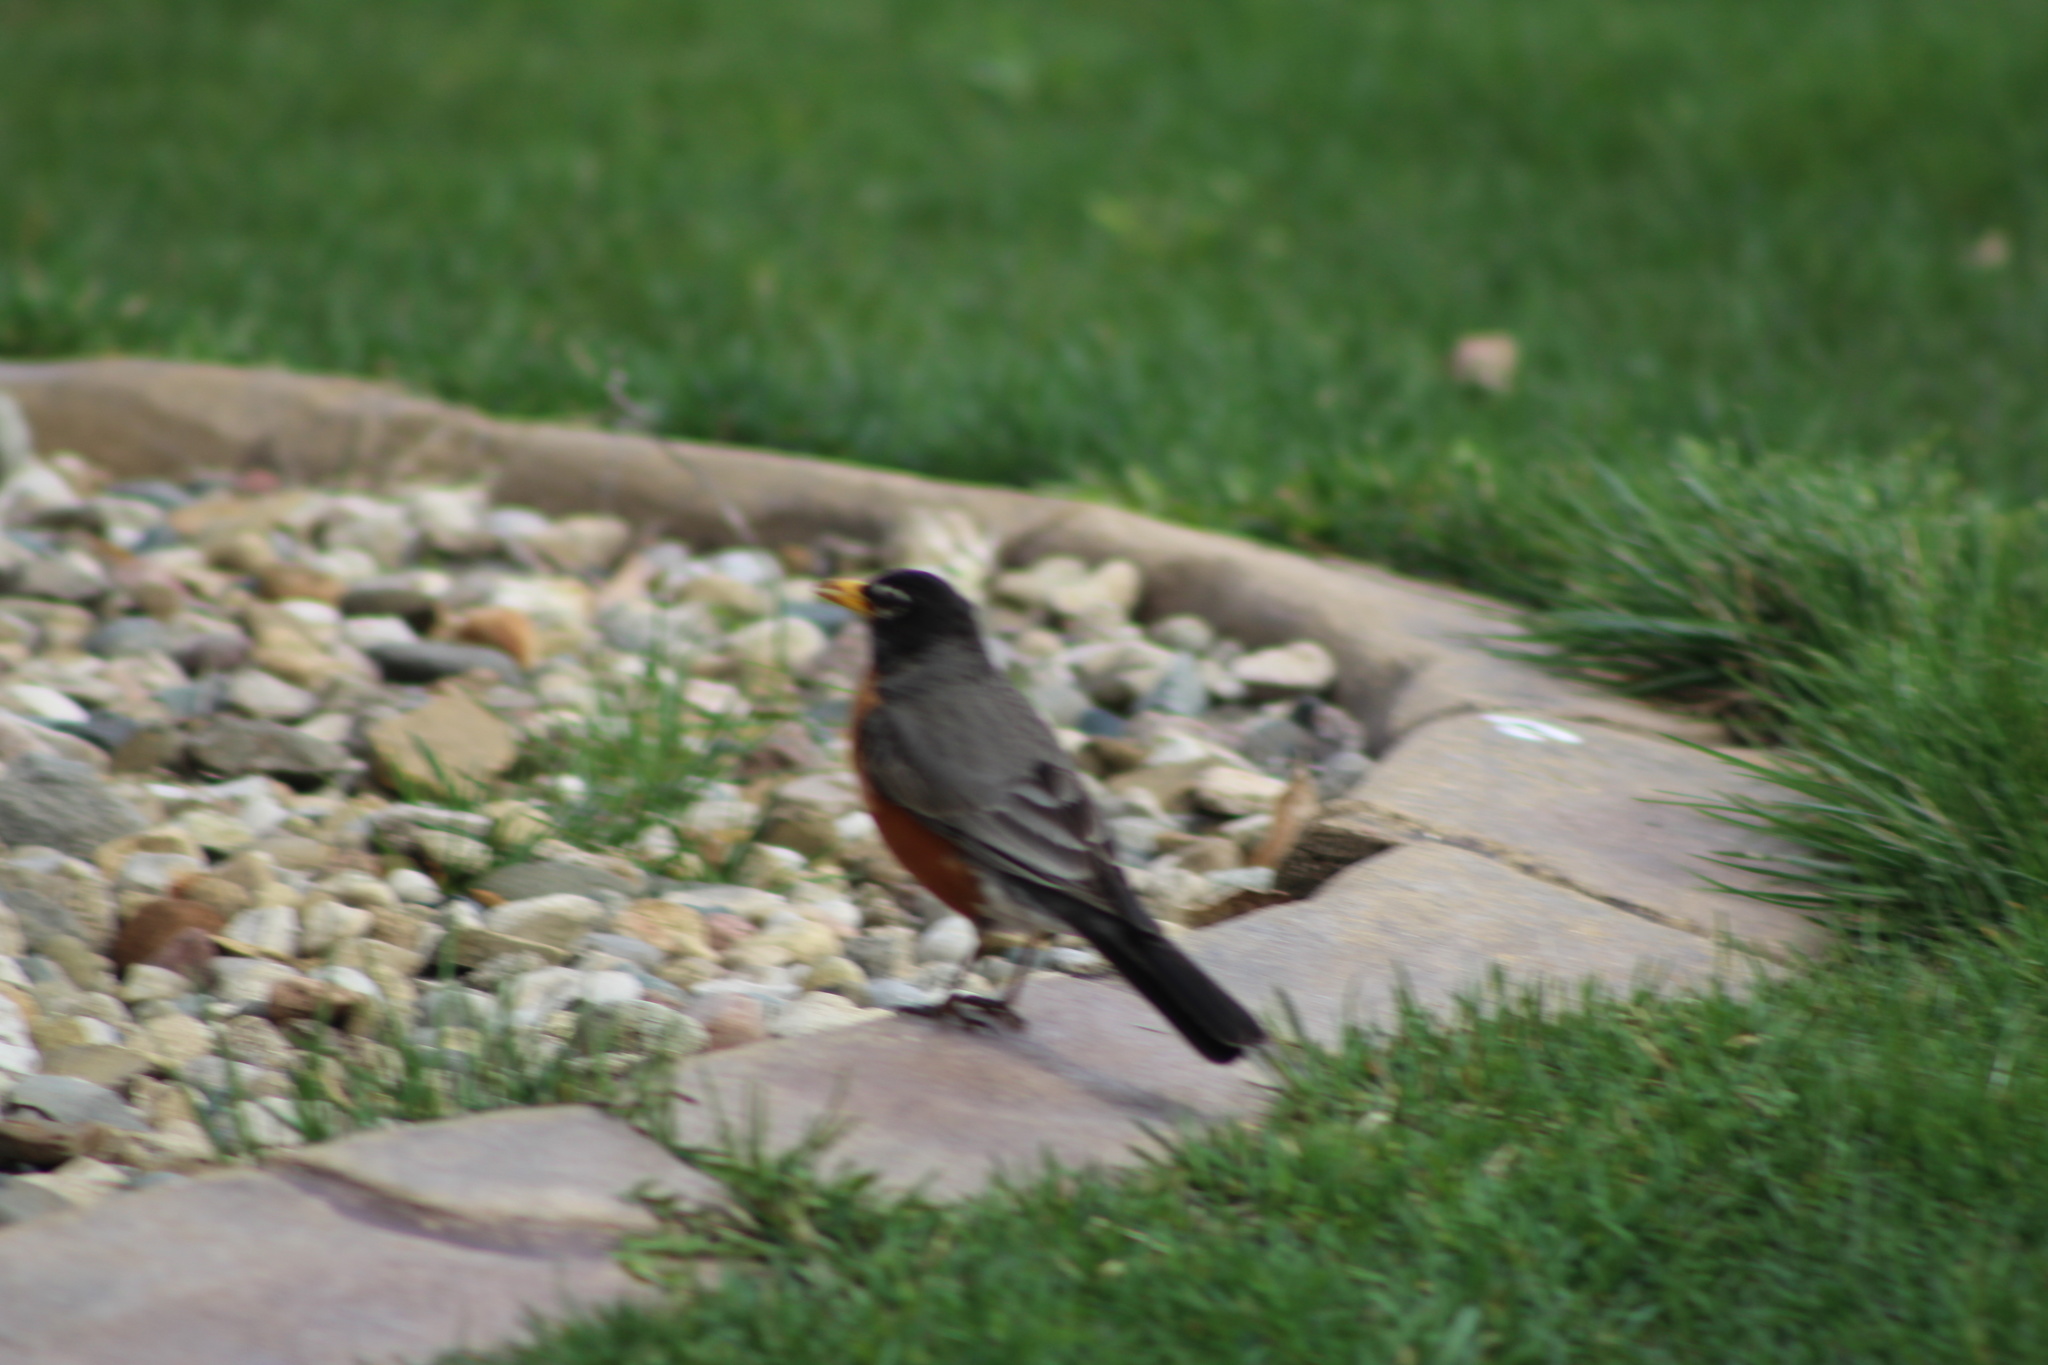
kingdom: Animalia
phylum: Chordata
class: Aves
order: Passeriformes
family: Turdidae
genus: Turdus
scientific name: Turdus migratorius
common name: American robin
